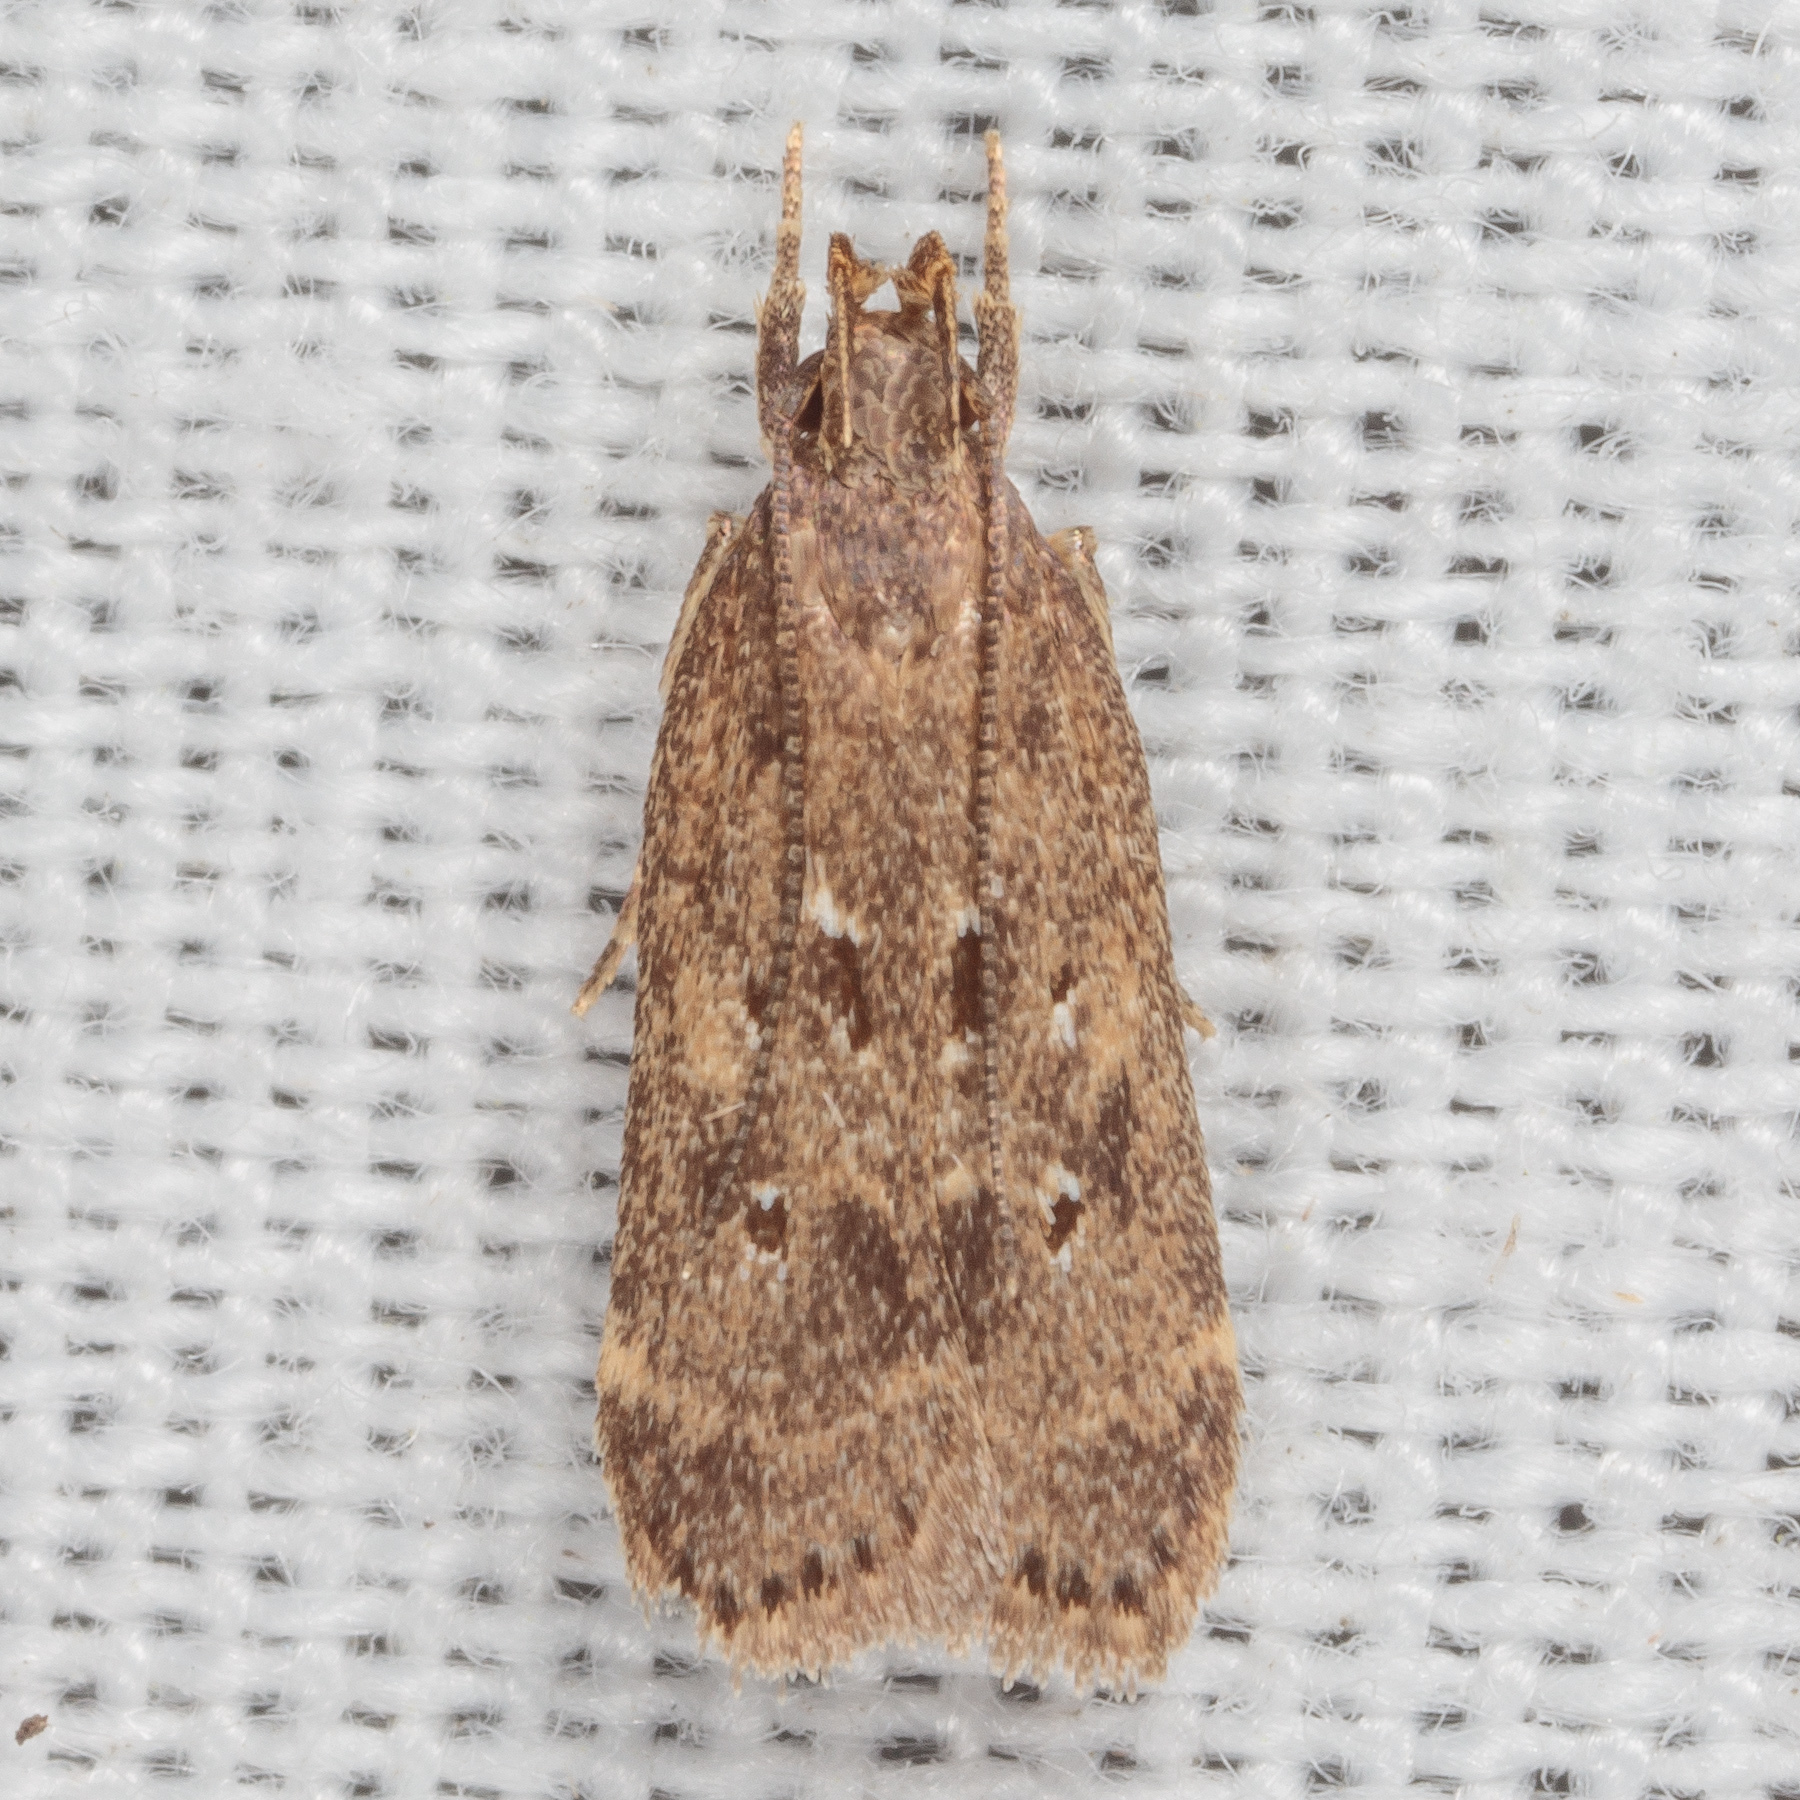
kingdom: Animalia
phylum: Arthropoda
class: Insecta
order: Lepidoptera
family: Gelechiidae
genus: Helcystogramma
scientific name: Helcystogramma melantherella
